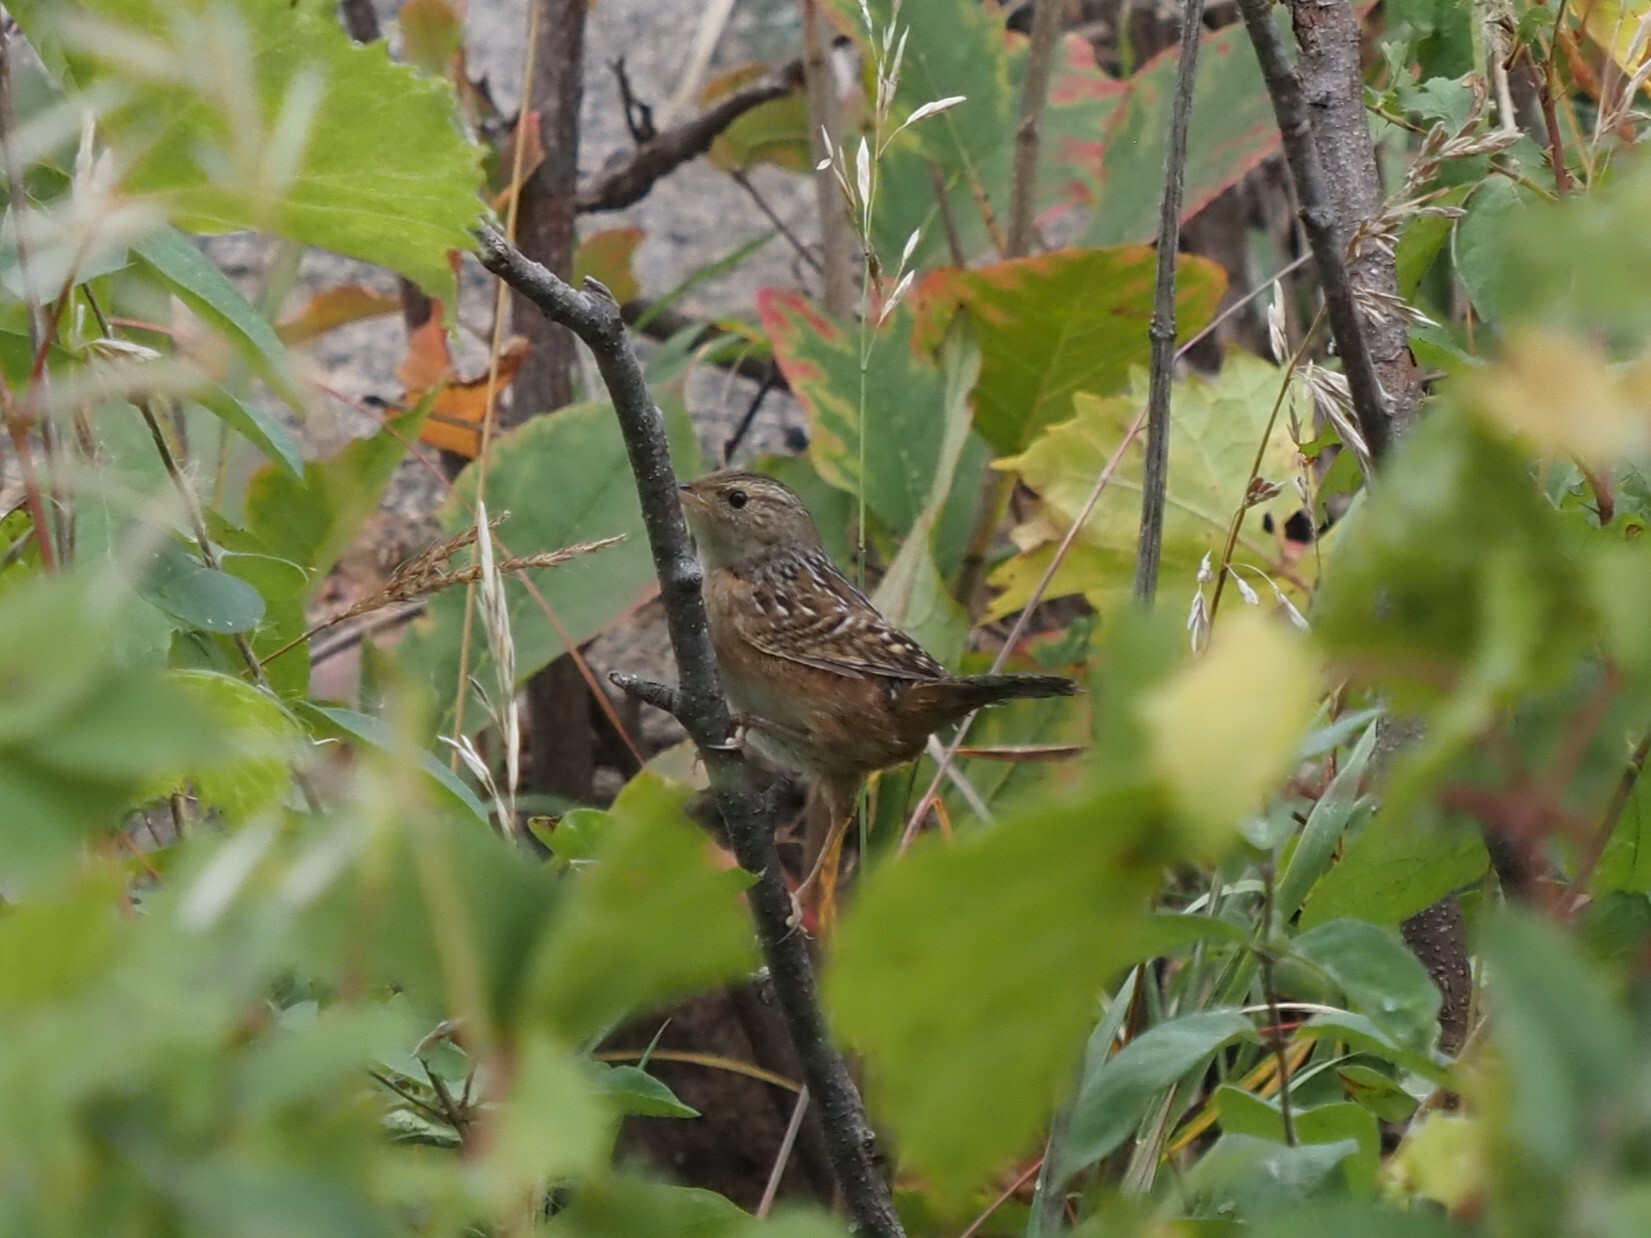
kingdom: Animalia
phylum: Chordata
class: Aves
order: Passeriformes
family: Troglodytidae
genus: Cistothorus
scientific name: Cistothorus platensis
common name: Sedge wren
